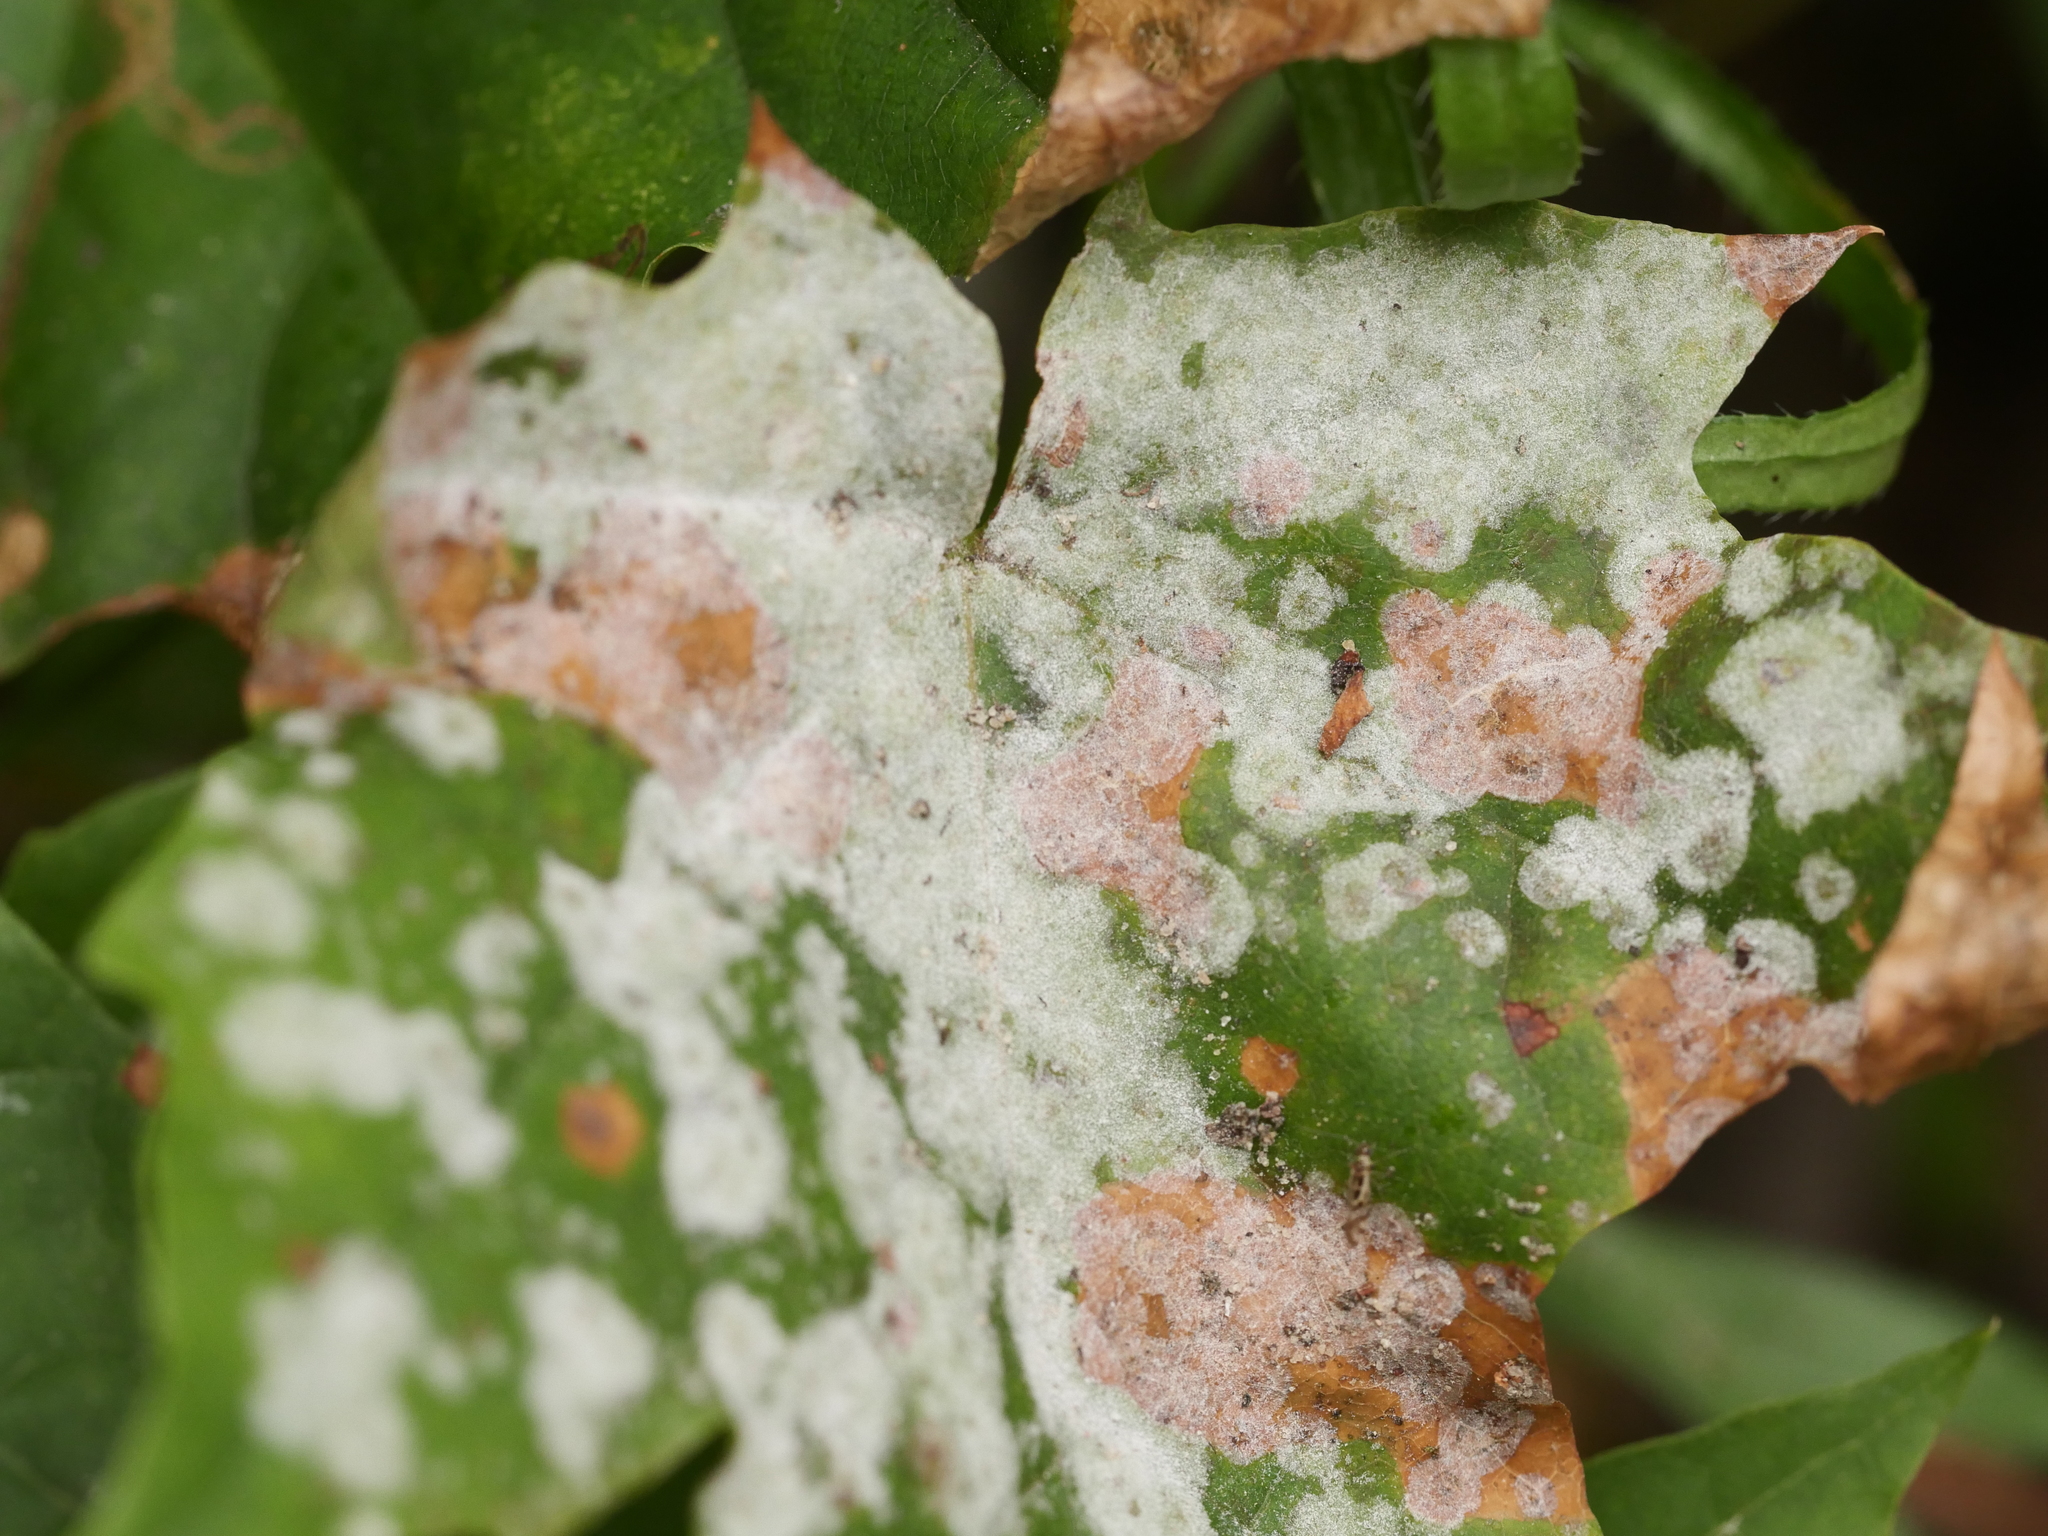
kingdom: Fungi
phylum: Ascomycota
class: Leotiomycetes
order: Helotiales
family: Erysiphaceae
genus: Sawadaea
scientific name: Sawadaea tulasnei
